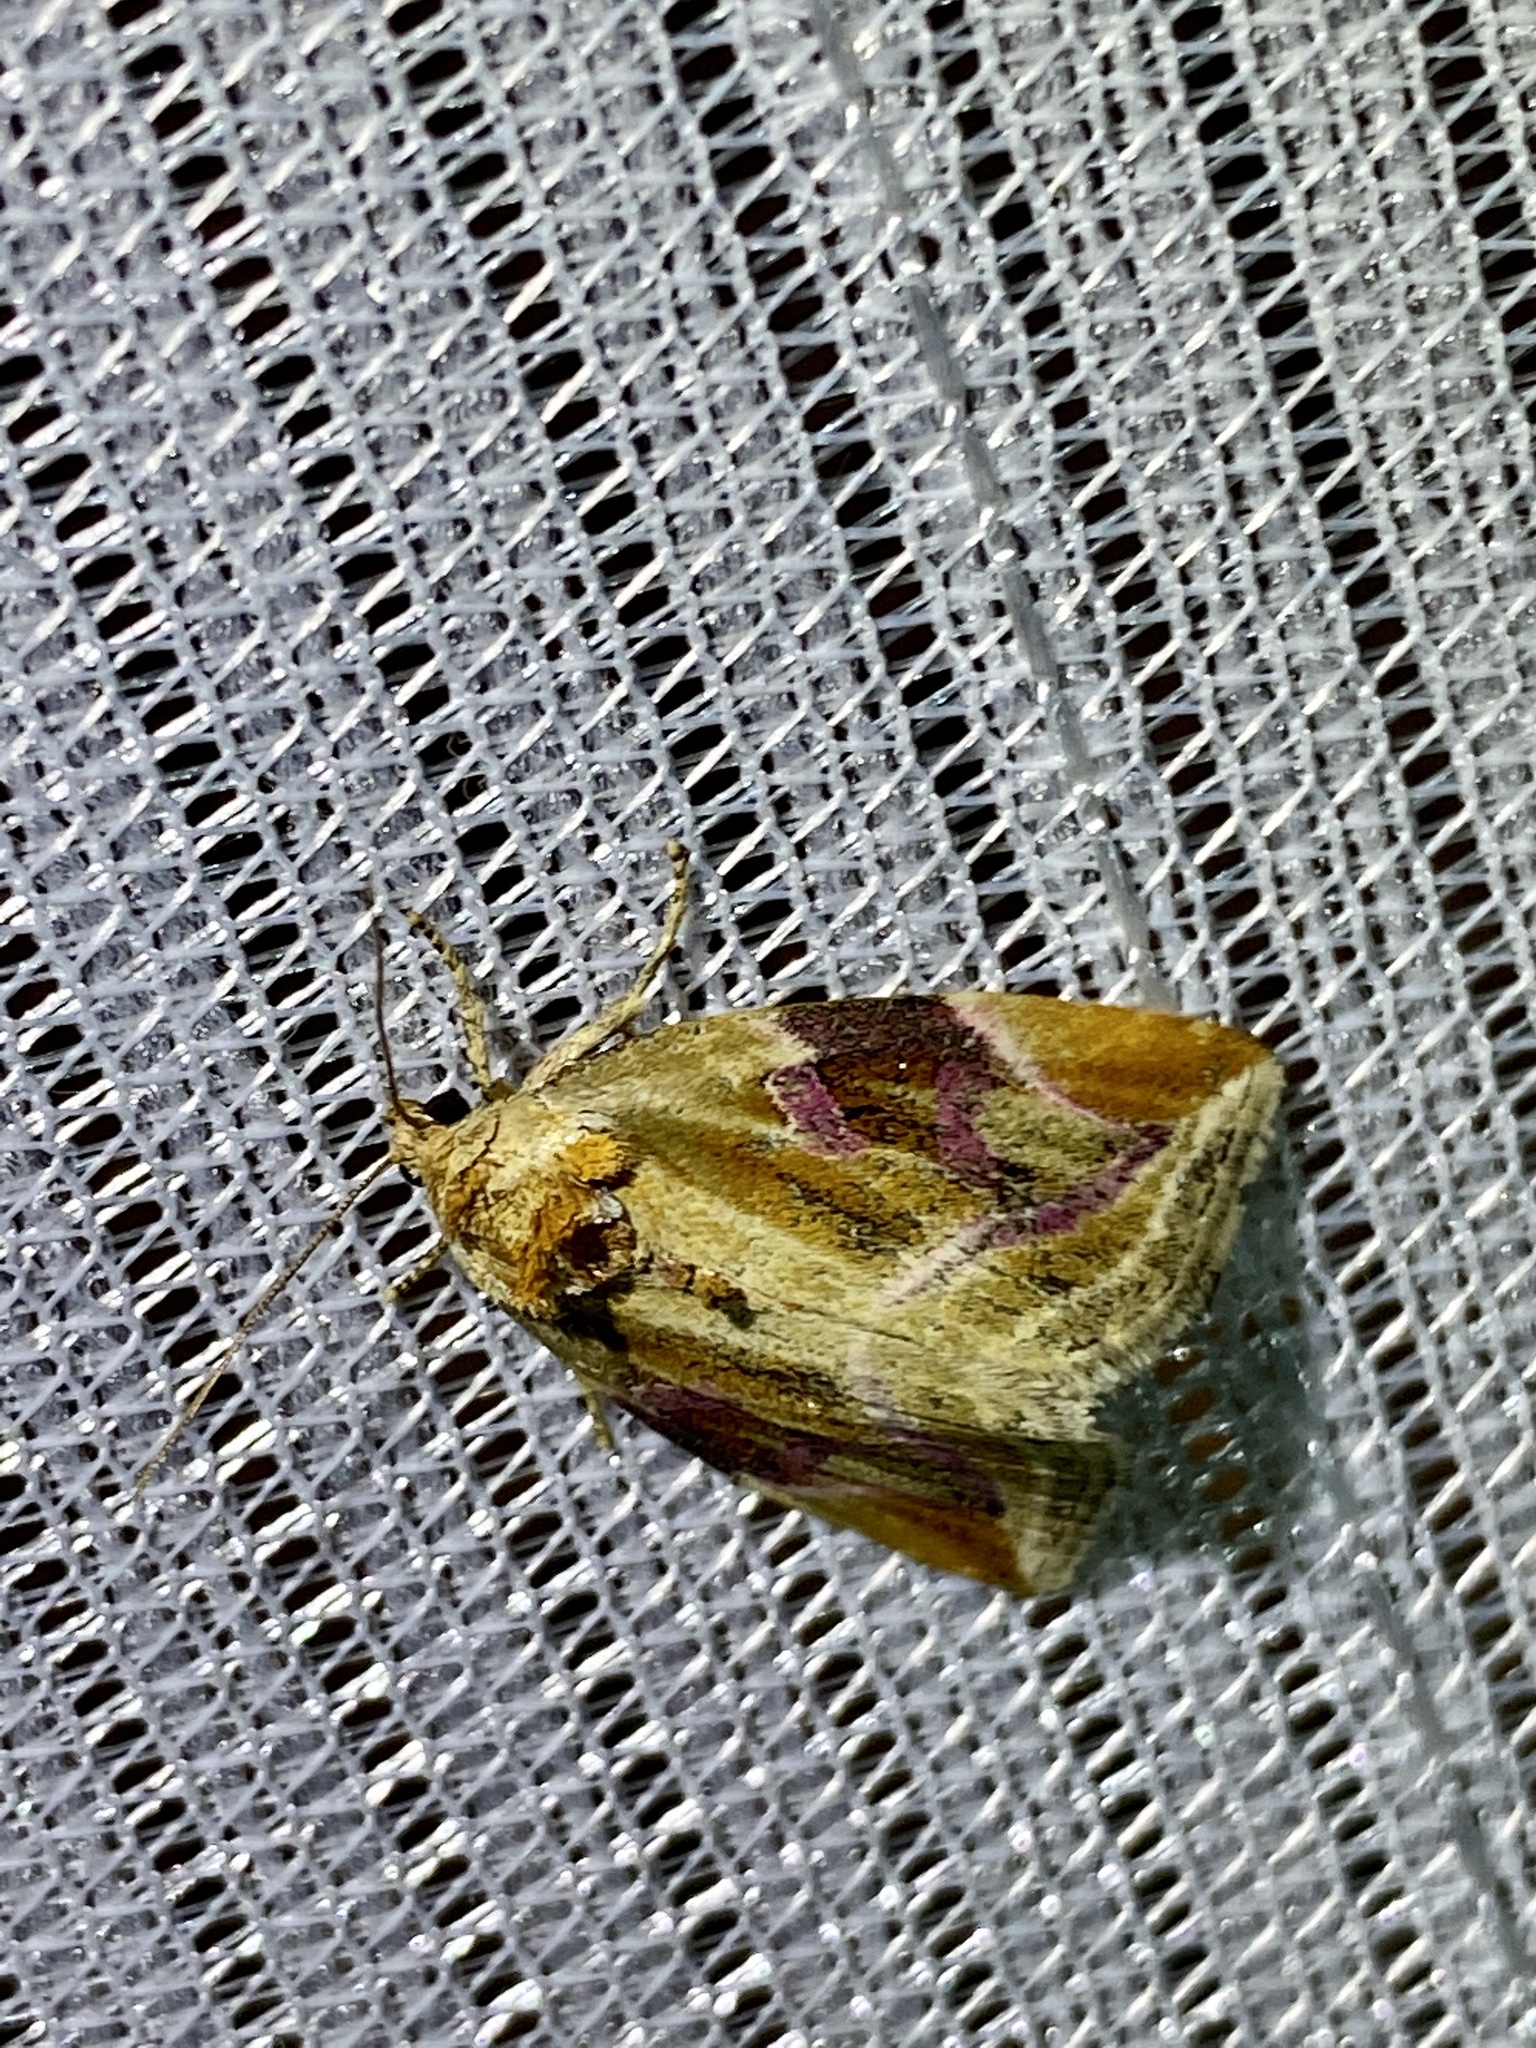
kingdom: Animalia
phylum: Arthropoda
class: Insecta
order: Lepidoptera
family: Noctuidae
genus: Micardia
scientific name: Micardia pulchra
